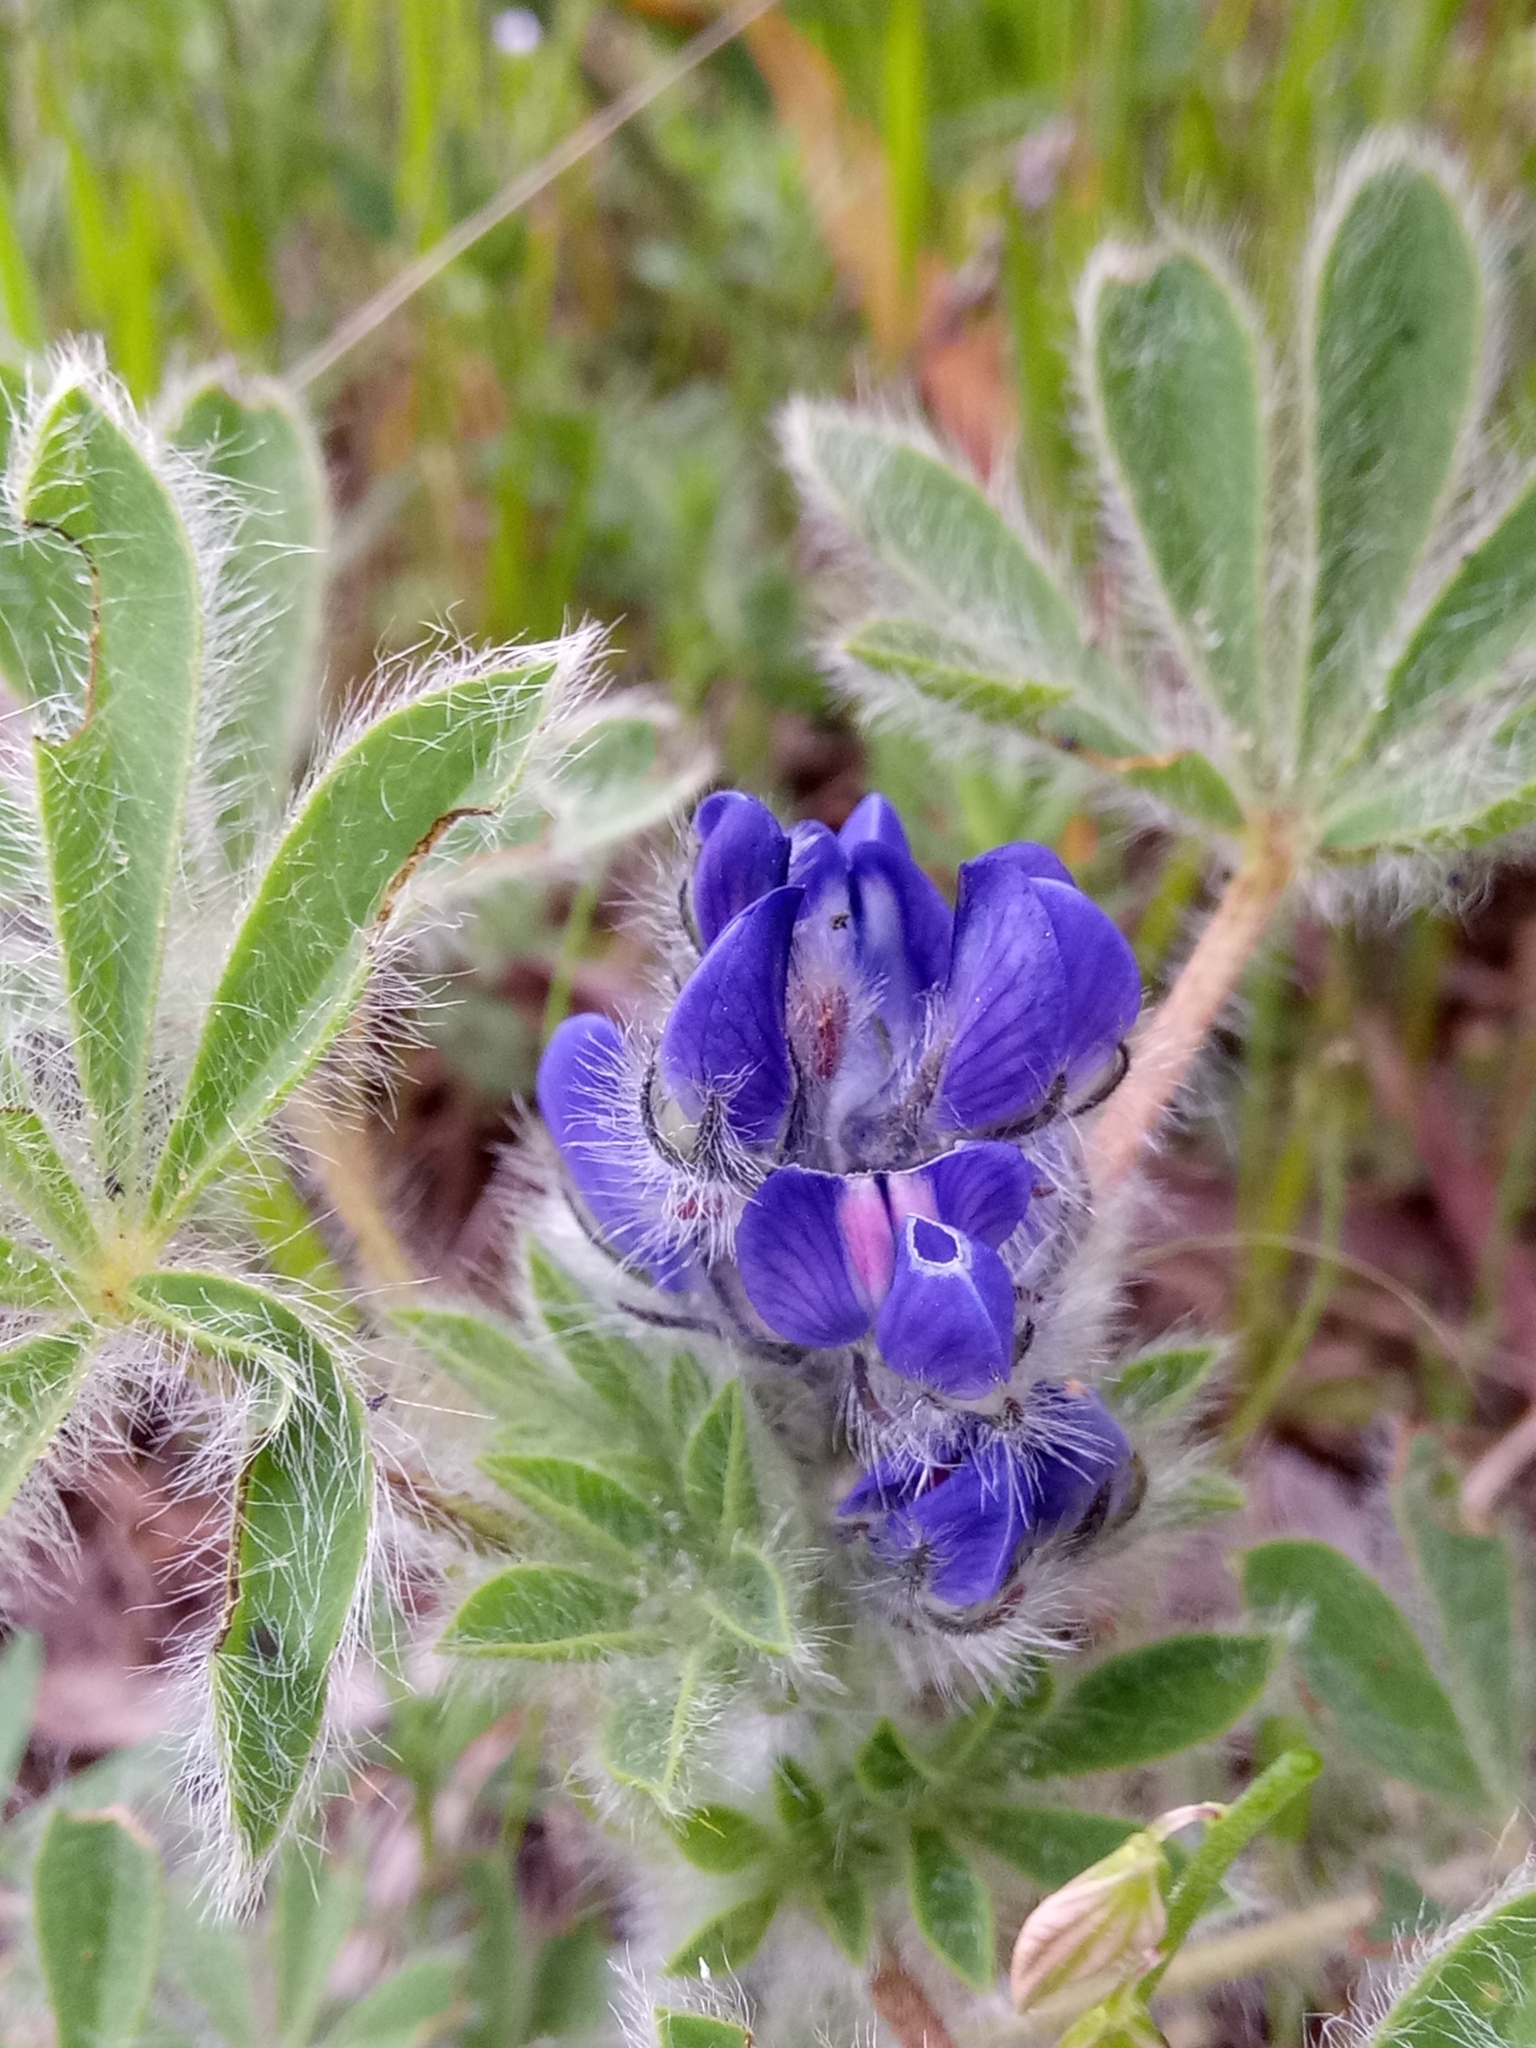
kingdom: Plantae
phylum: Tracheophyta
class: Magnoliopsida
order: Fabales
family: Fabaceae
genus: Lupinus
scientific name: Lupinus gussoneanus
